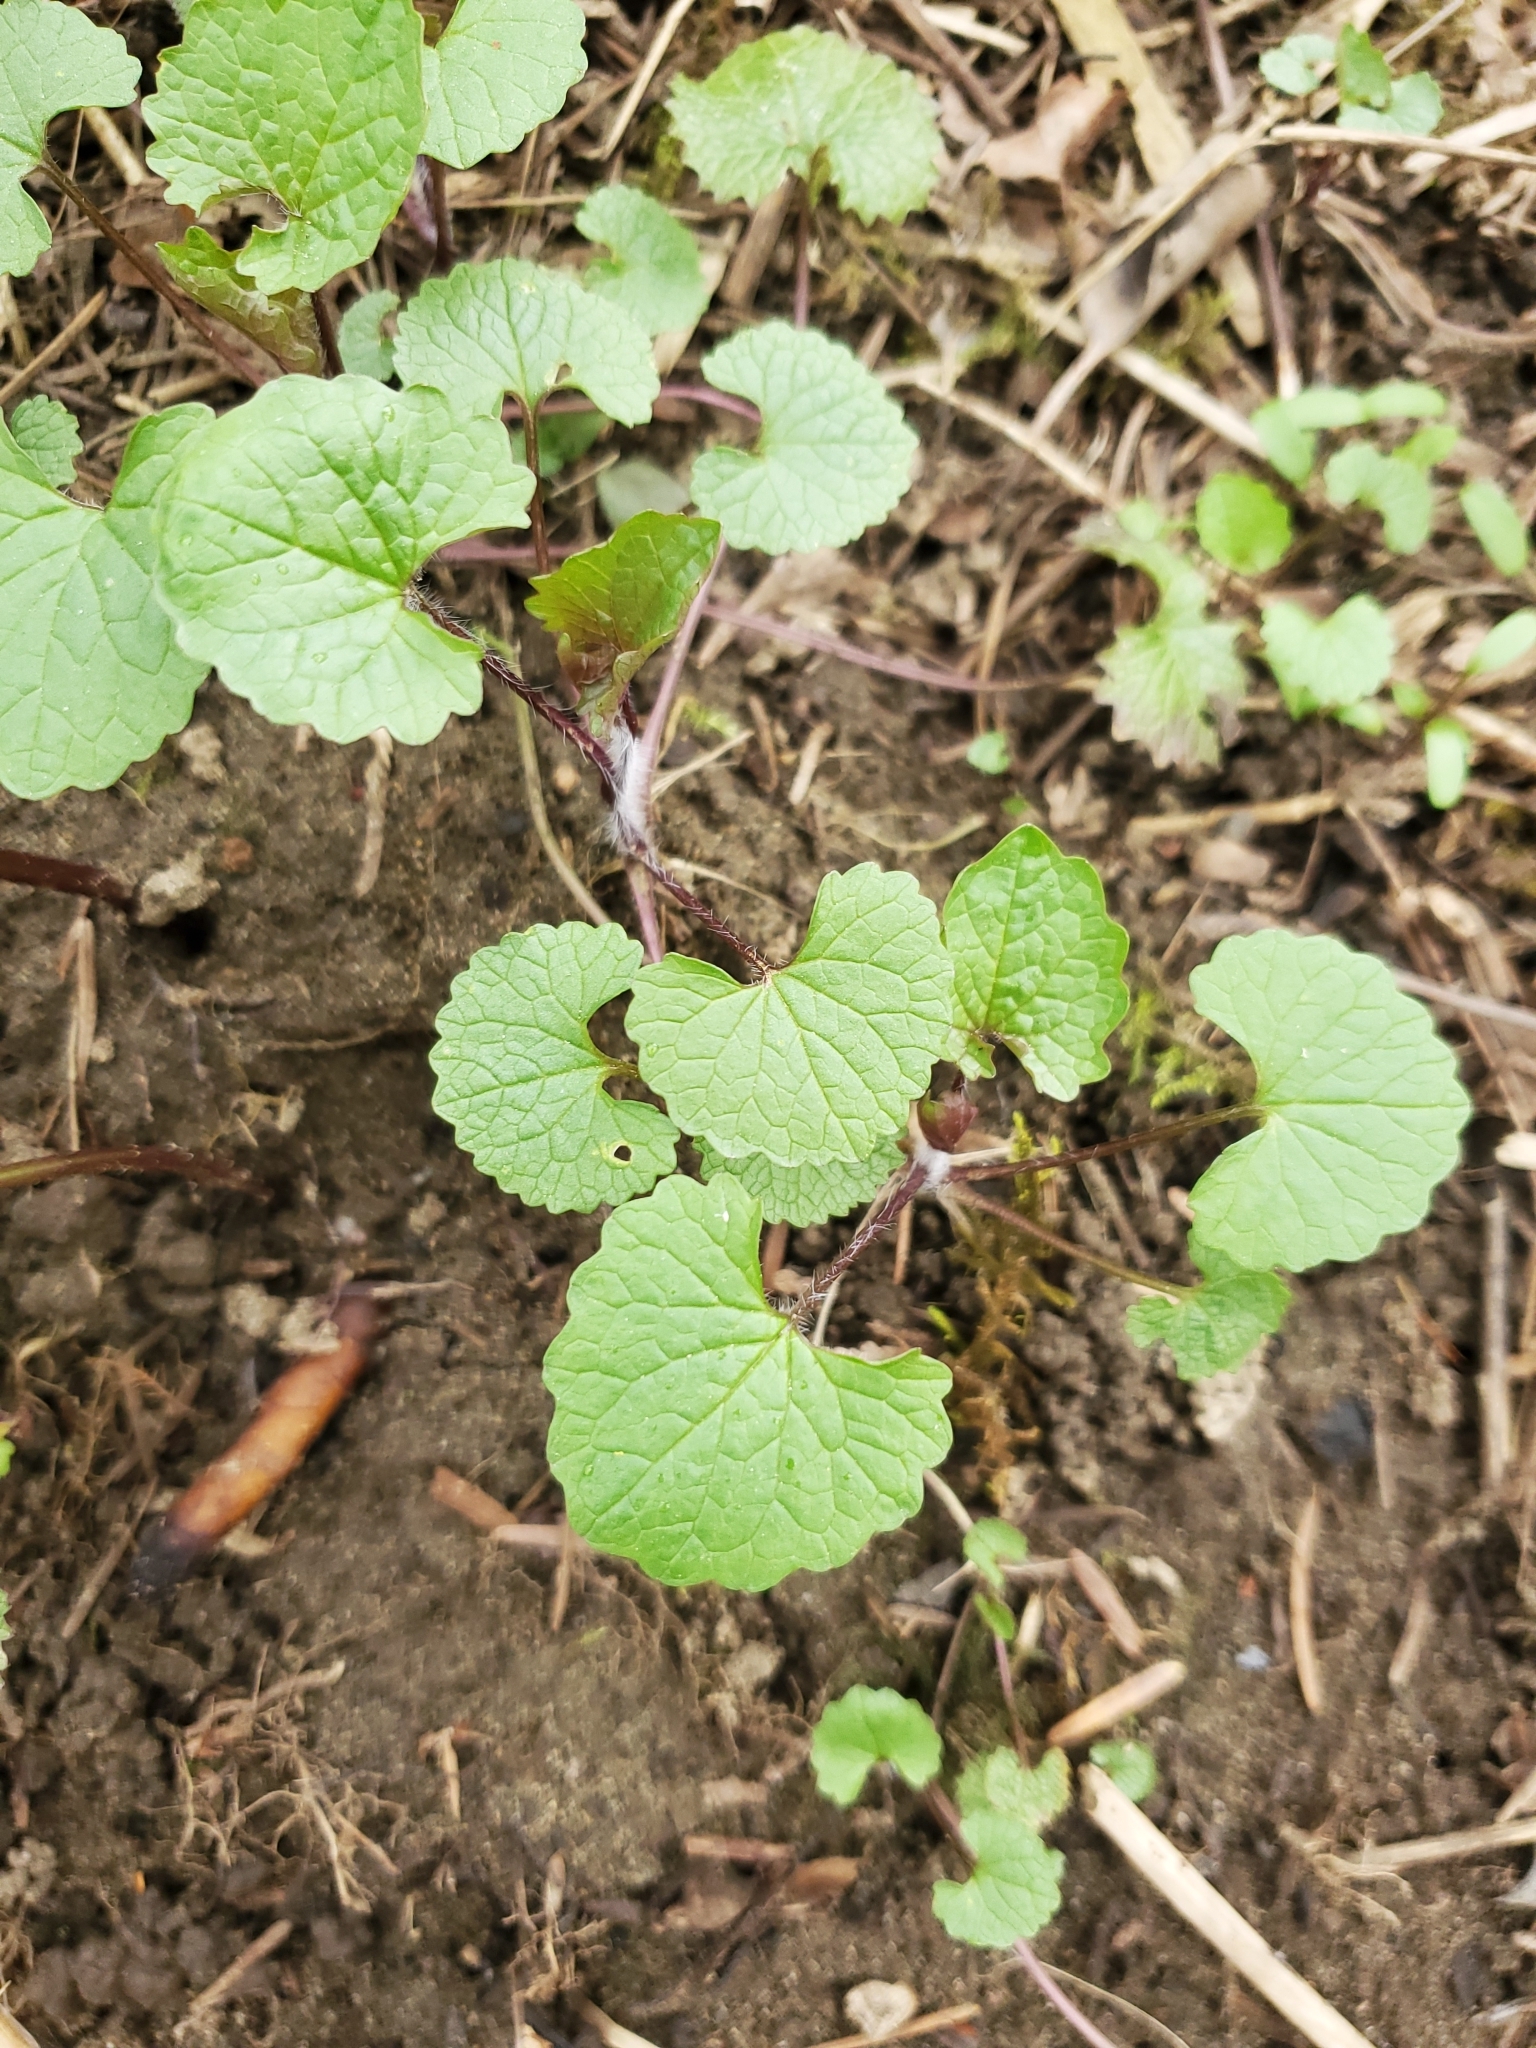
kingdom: Plantae
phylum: Tracheophyta
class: Magnoliopsida
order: Brassicales
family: Brassicaceae
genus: Alliaria
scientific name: Alliaria petiolata
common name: Garlic mustard
